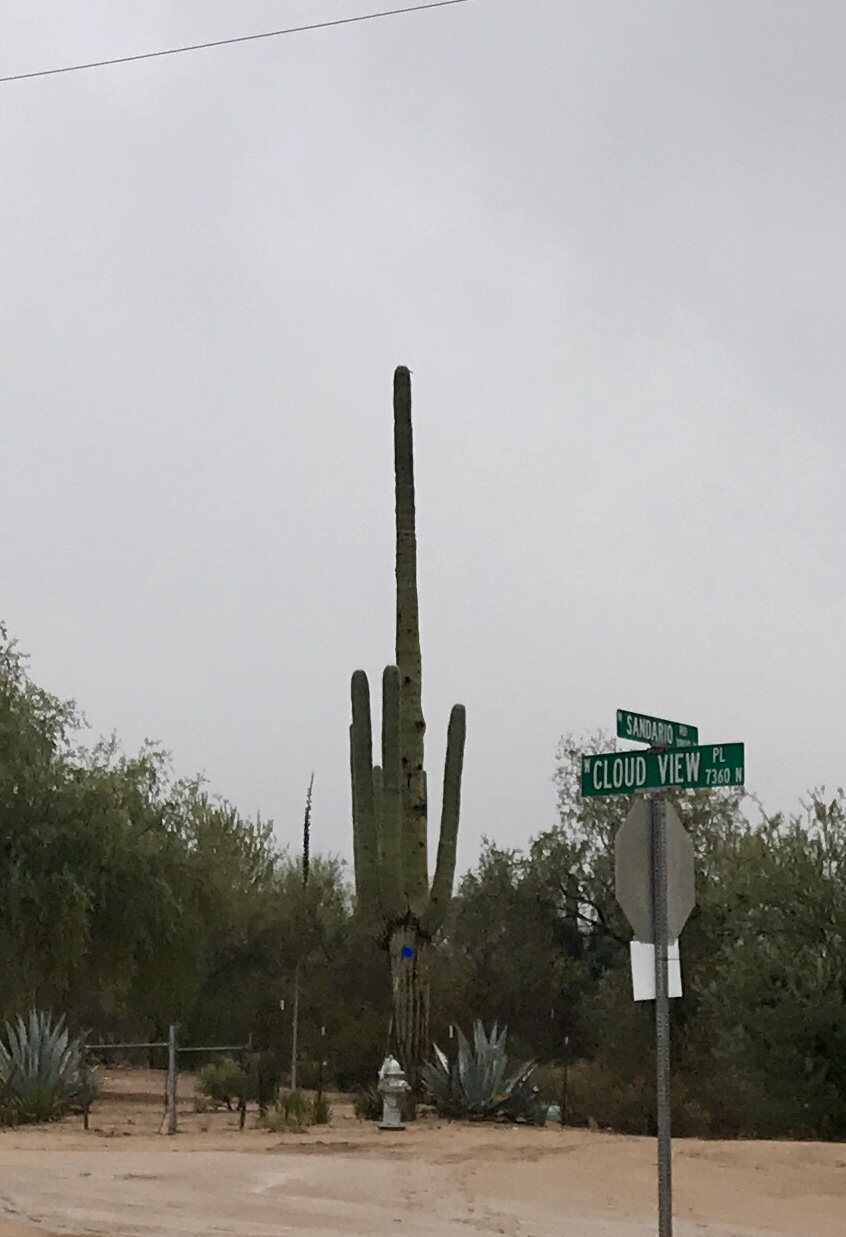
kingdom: Plantae
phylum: Tracheophyta
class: Magnoliopsida
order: Caryophyllales
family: Cactaceae
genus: Carnegiea
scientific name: Carnegiea gigantea
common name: Saguaro
